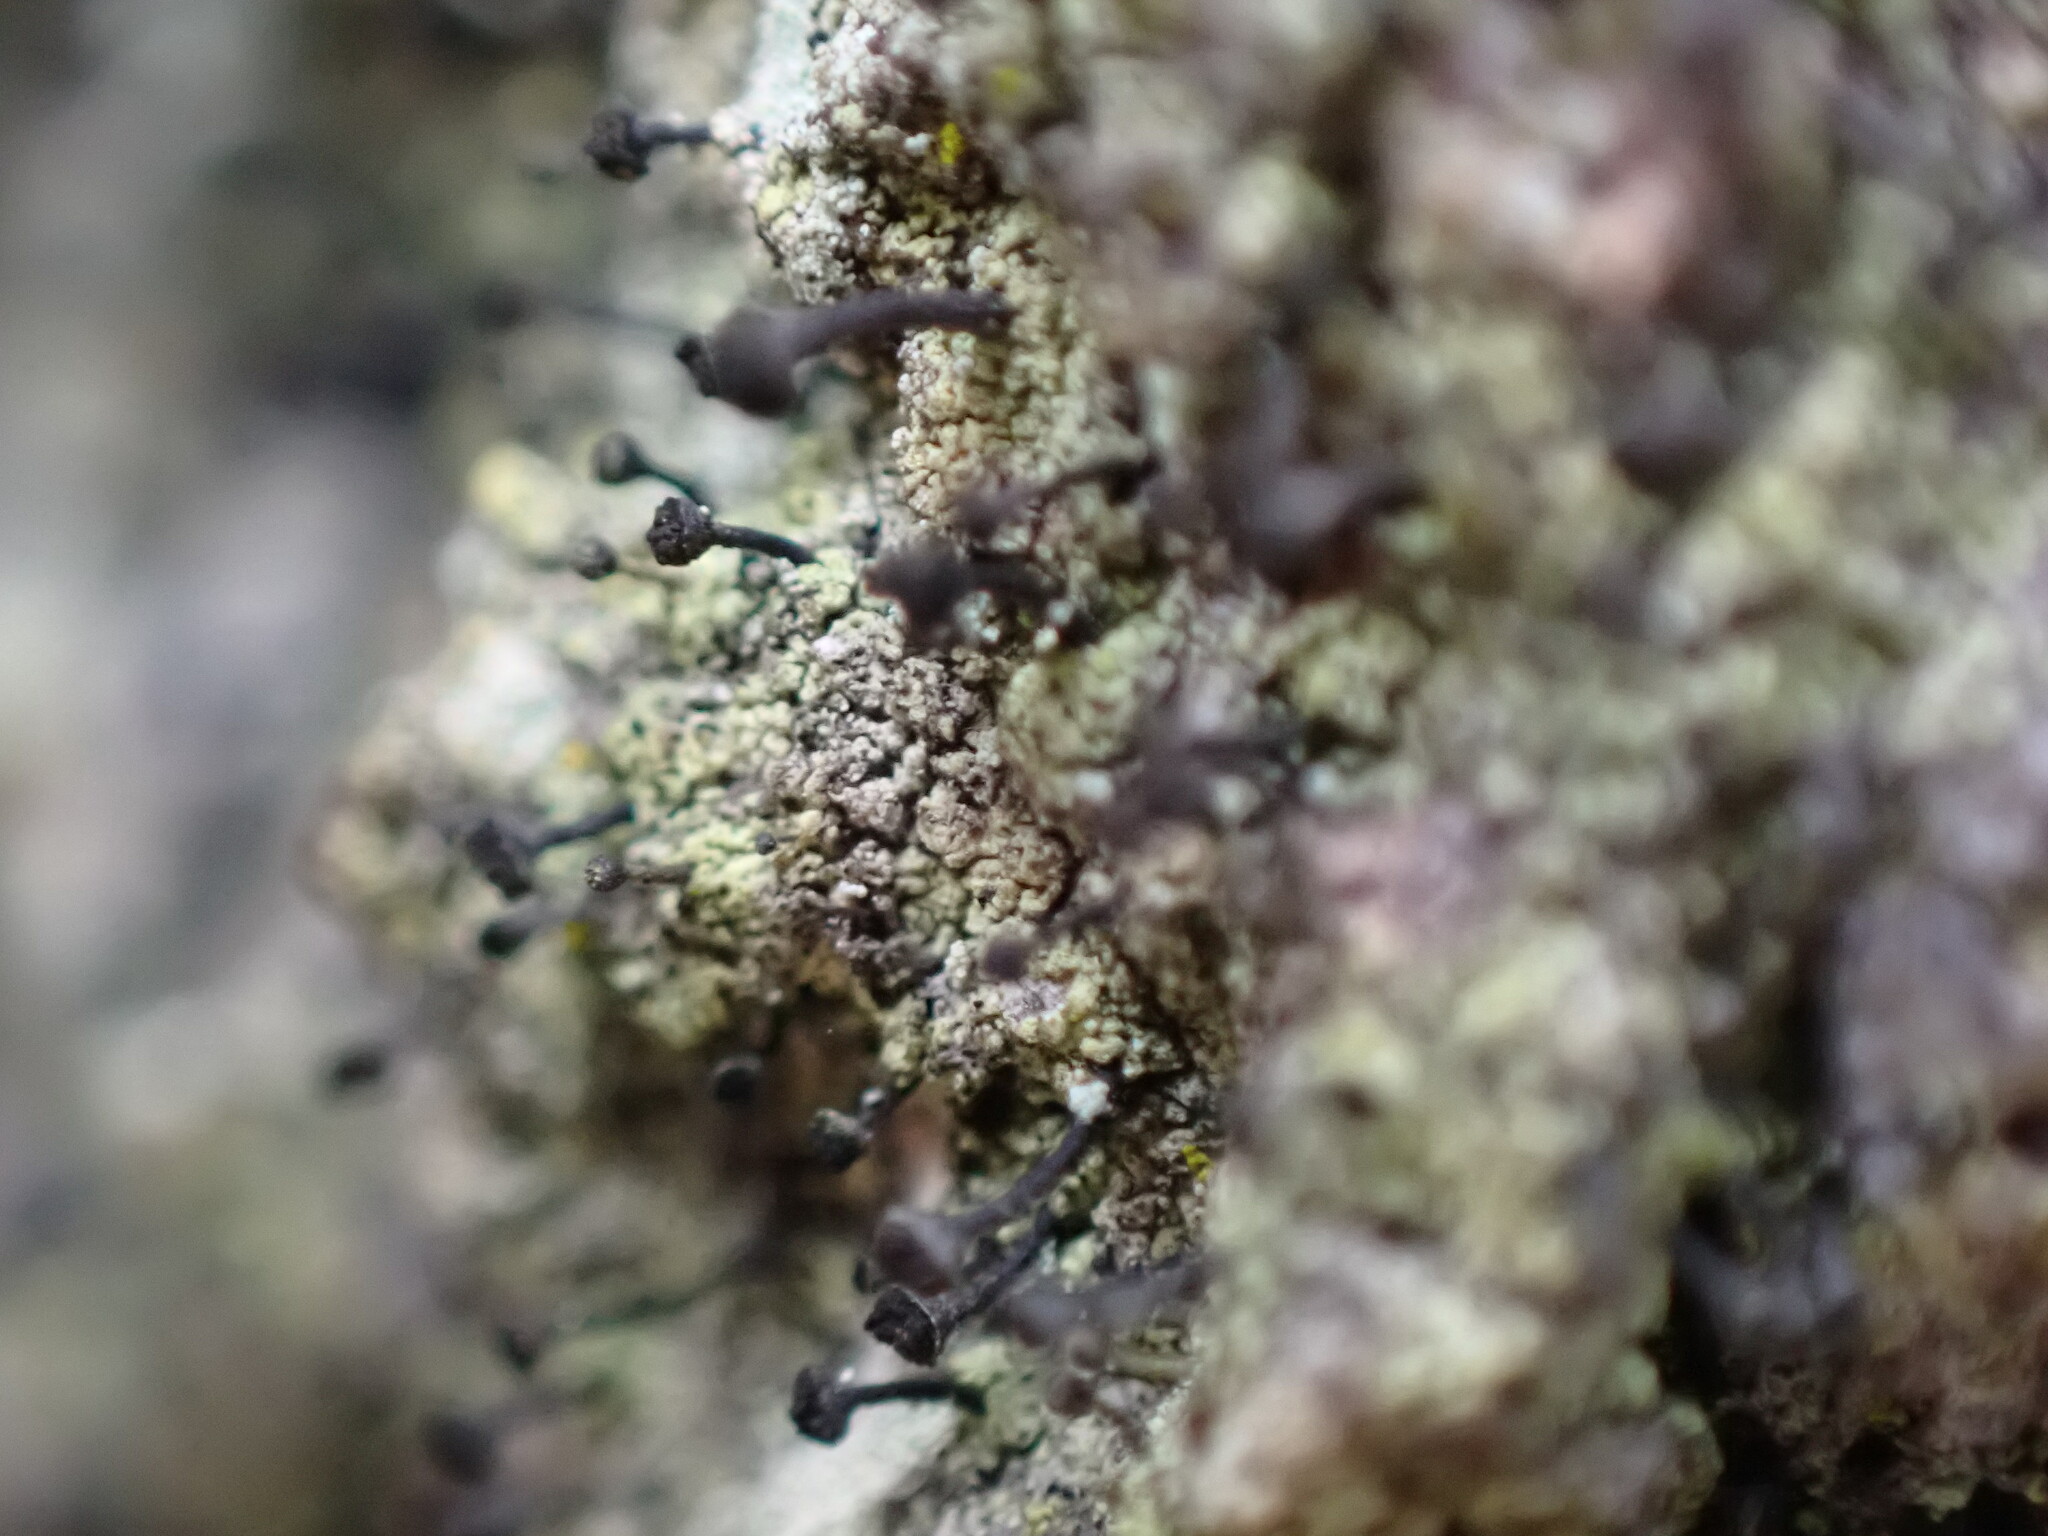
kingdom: Fungi
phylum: Ascomycota
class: Lecanoromycetes
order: Caliciales
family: Caliciaceae
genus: Calicium
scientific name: Calicium viride
